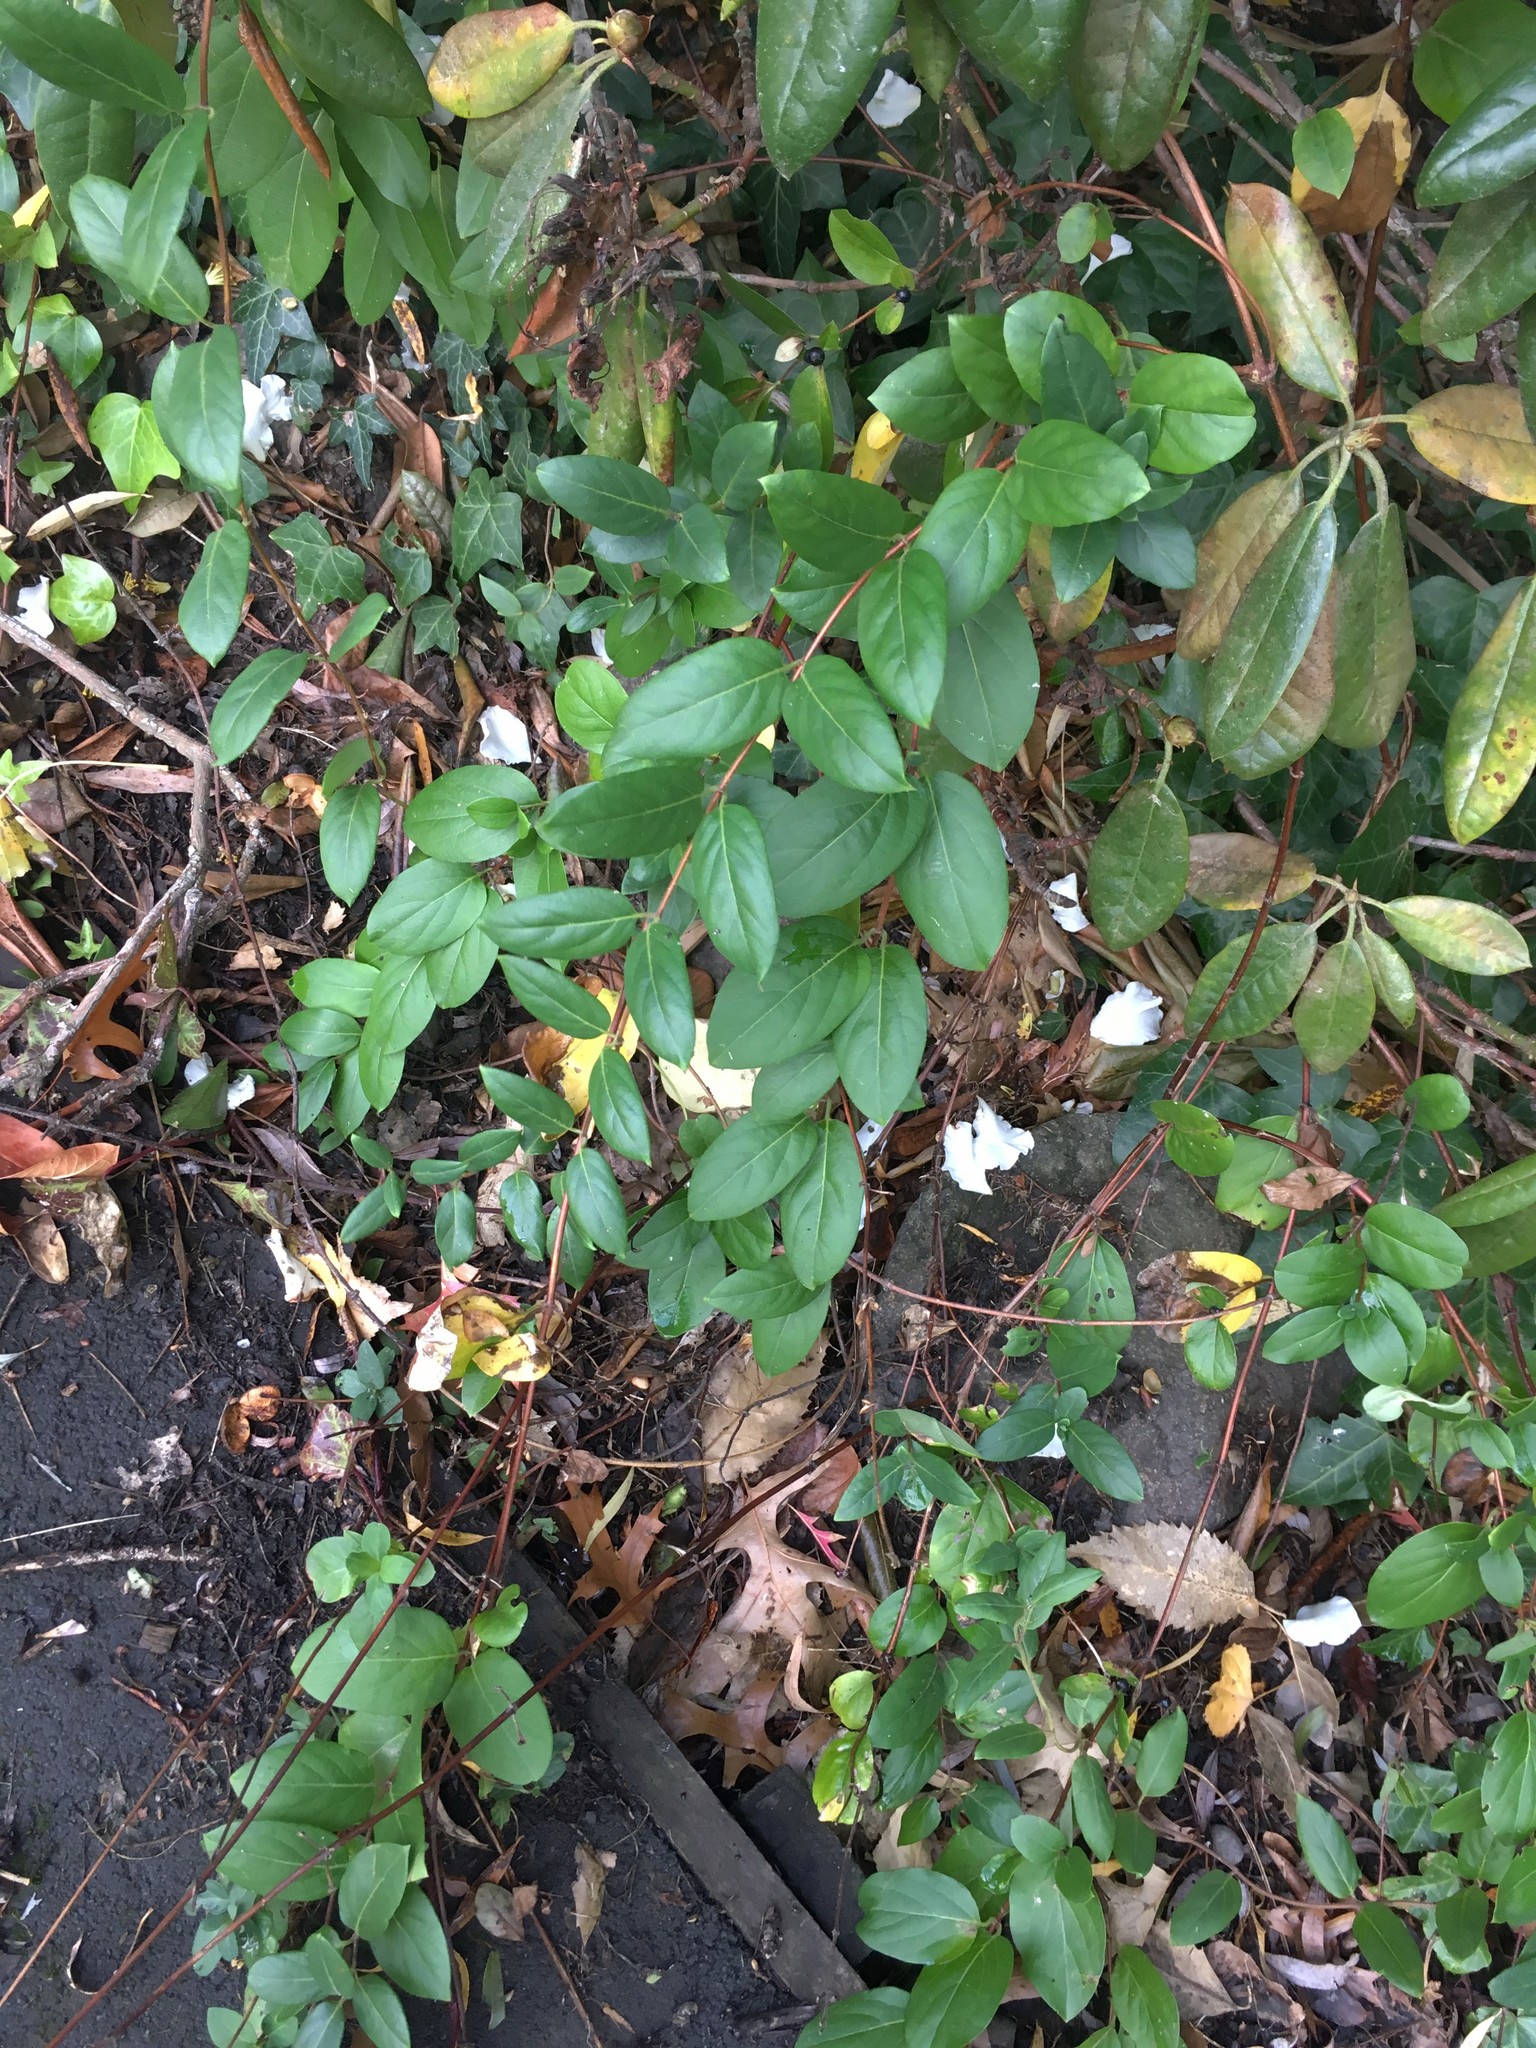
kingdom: Plantae
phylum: Tracheophyta
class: Magnoliopsida
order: Dipsacales
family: Caprifoliaceae
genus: Lonicera
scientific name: Lonicera japonica
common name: Japanese honeysuckle
